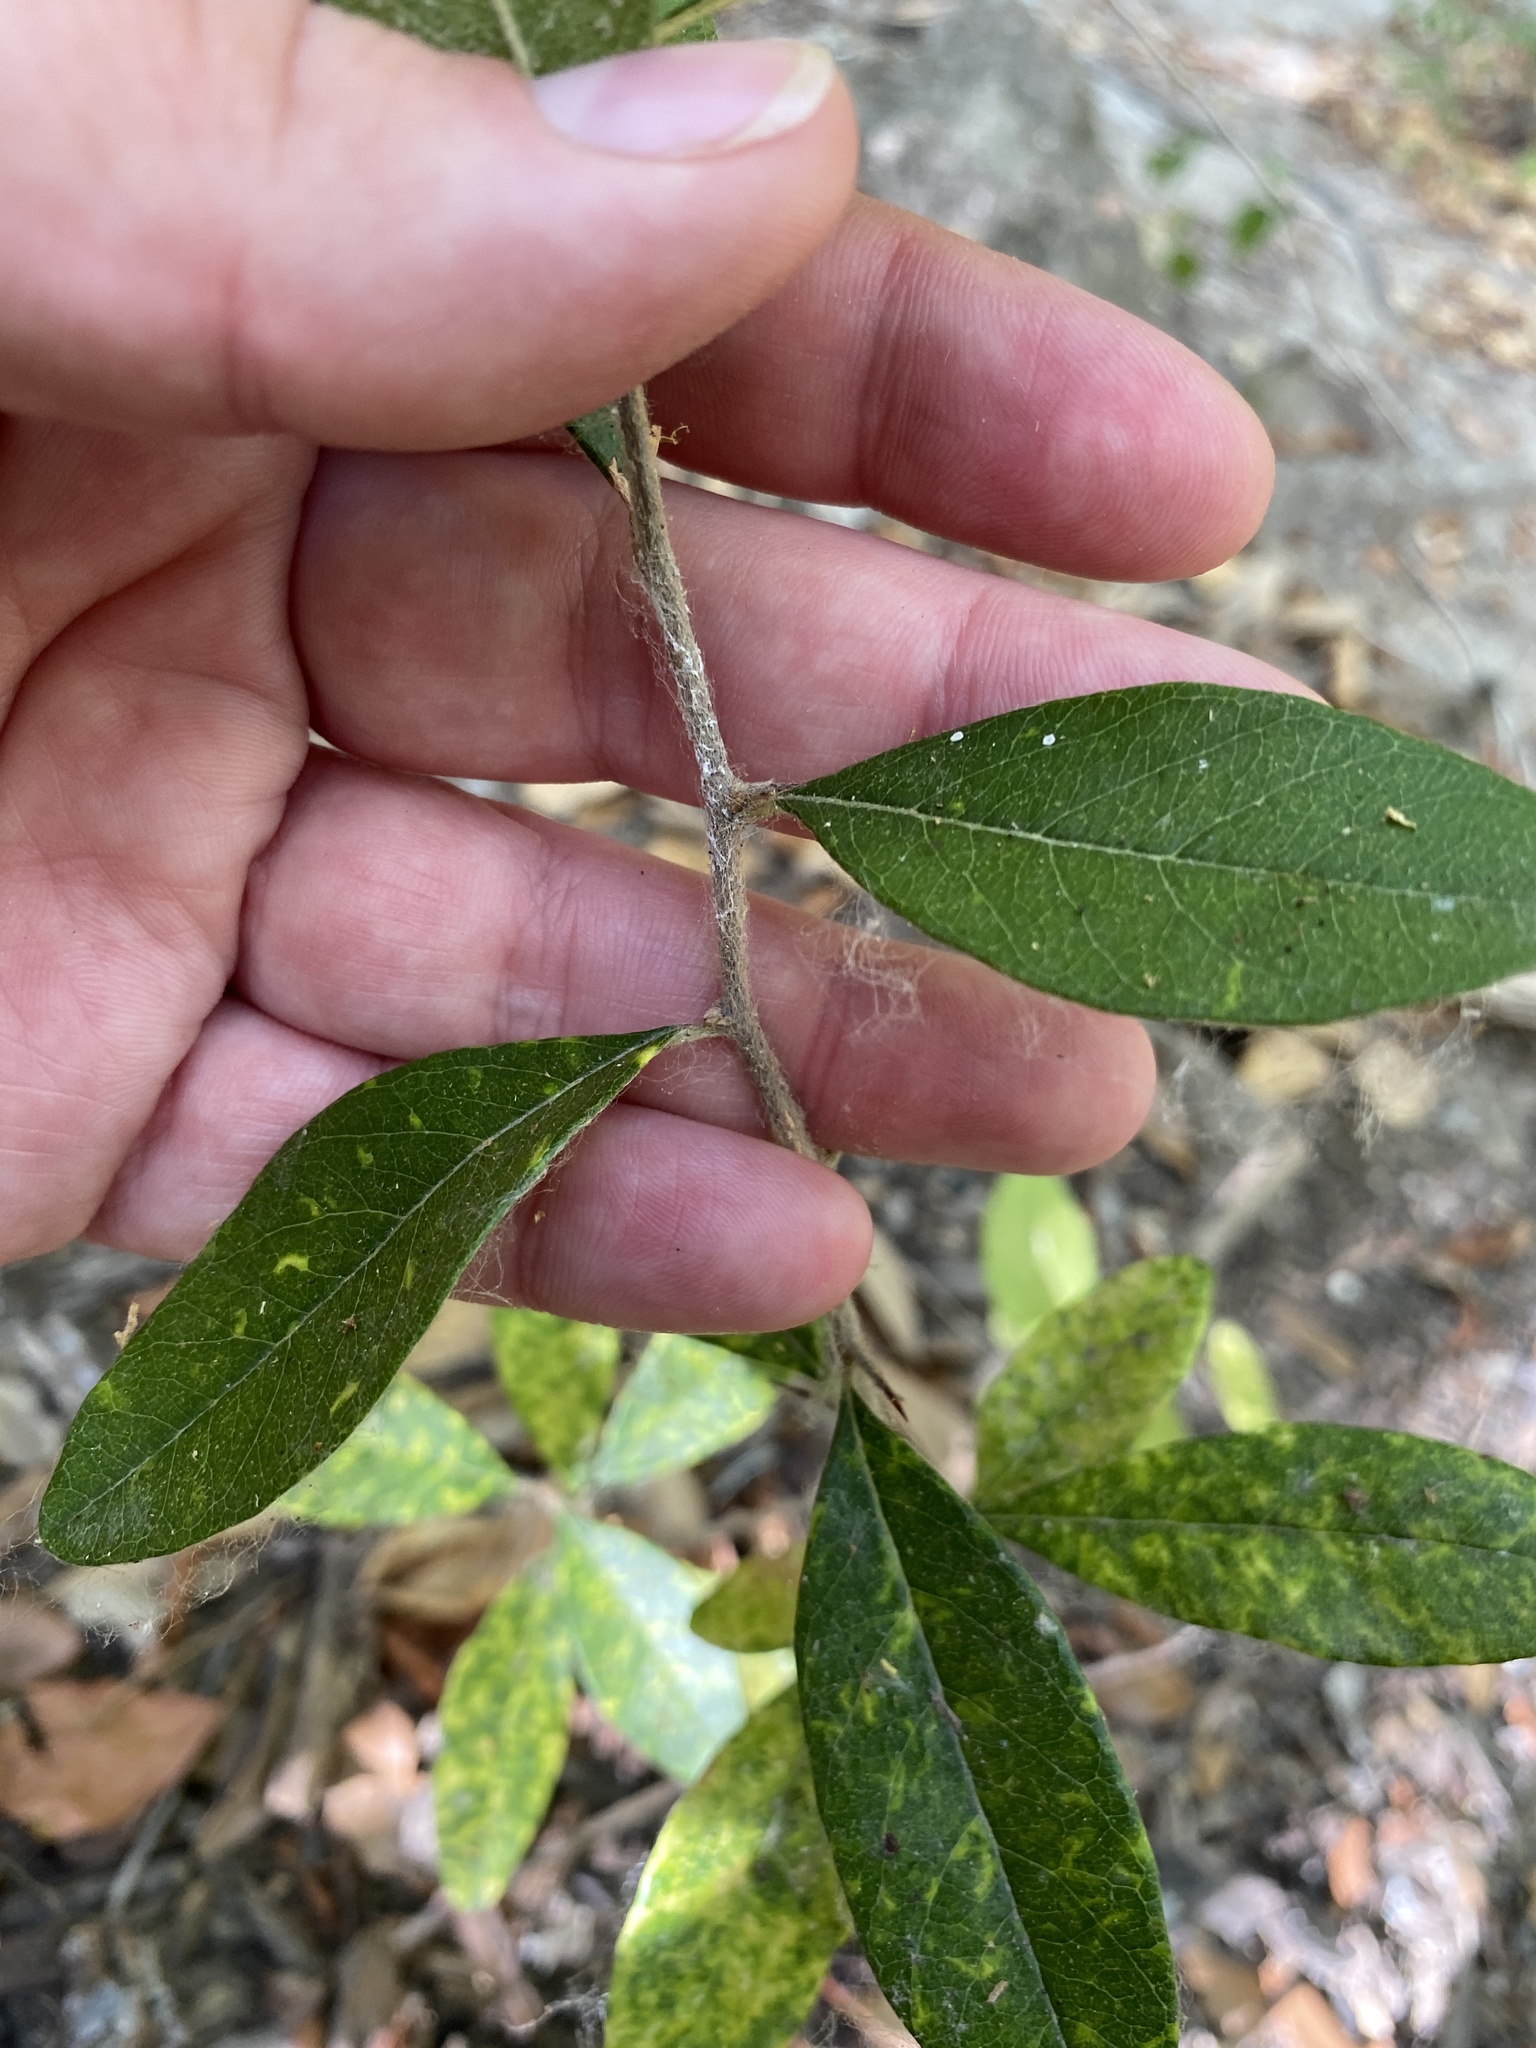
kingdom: Plantae
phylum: Tracheophyta
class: Magnoliopsida
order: Ericales
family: Sapotaceae
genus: Sideroxylon
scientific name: Sideroxylon lanuginosum
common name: Chittamwood
